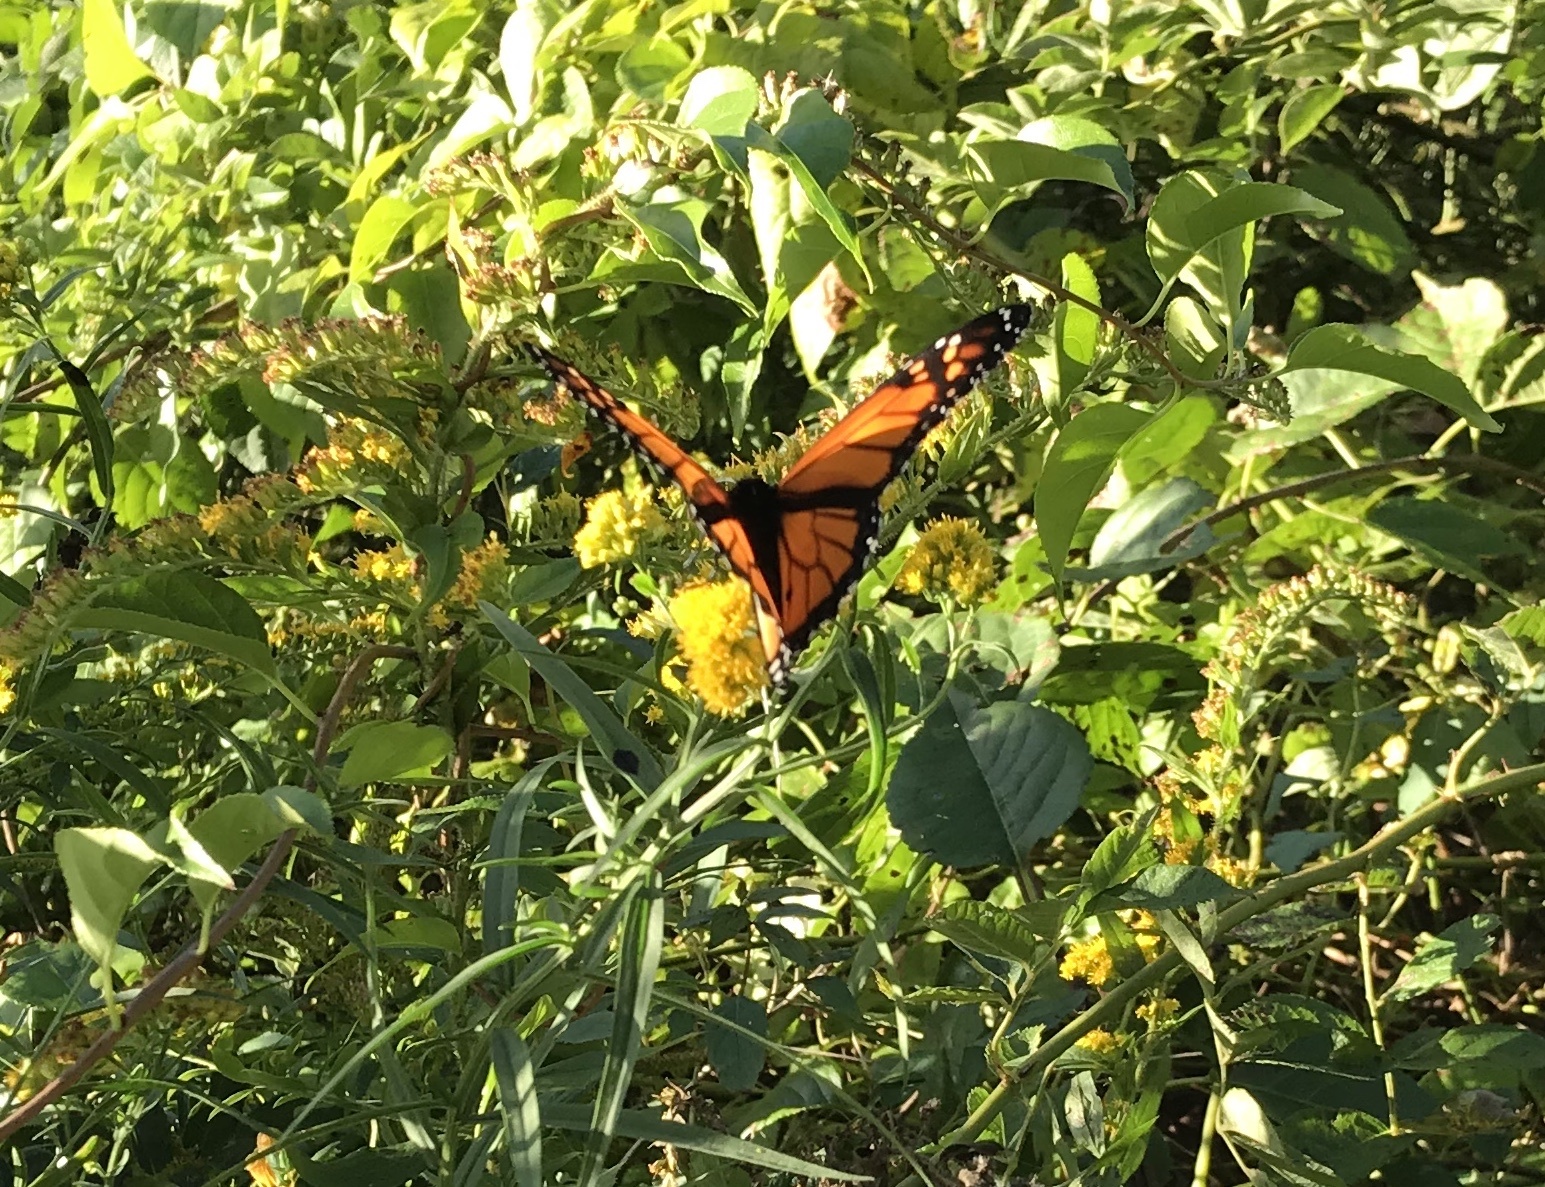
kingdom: Animalia
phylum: Arthropoda
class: Insecta
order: Lepidoptera
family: Nymphalidae
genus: Danaus
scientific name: Danaus plexippus
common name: Monarch
